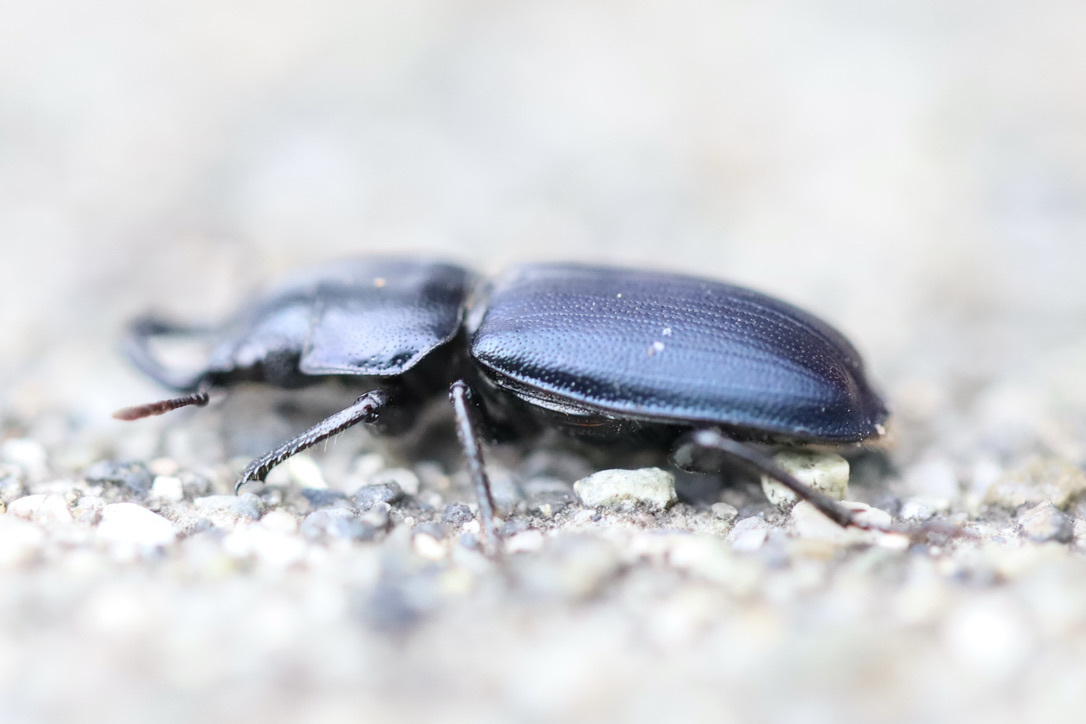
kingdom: Animalia
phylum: Arthropoda
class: Insecta
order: Coleoptera
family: Lucanidae
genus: Platycerus
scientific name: Platycerus oregonensis
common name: Oregon stag beetle
